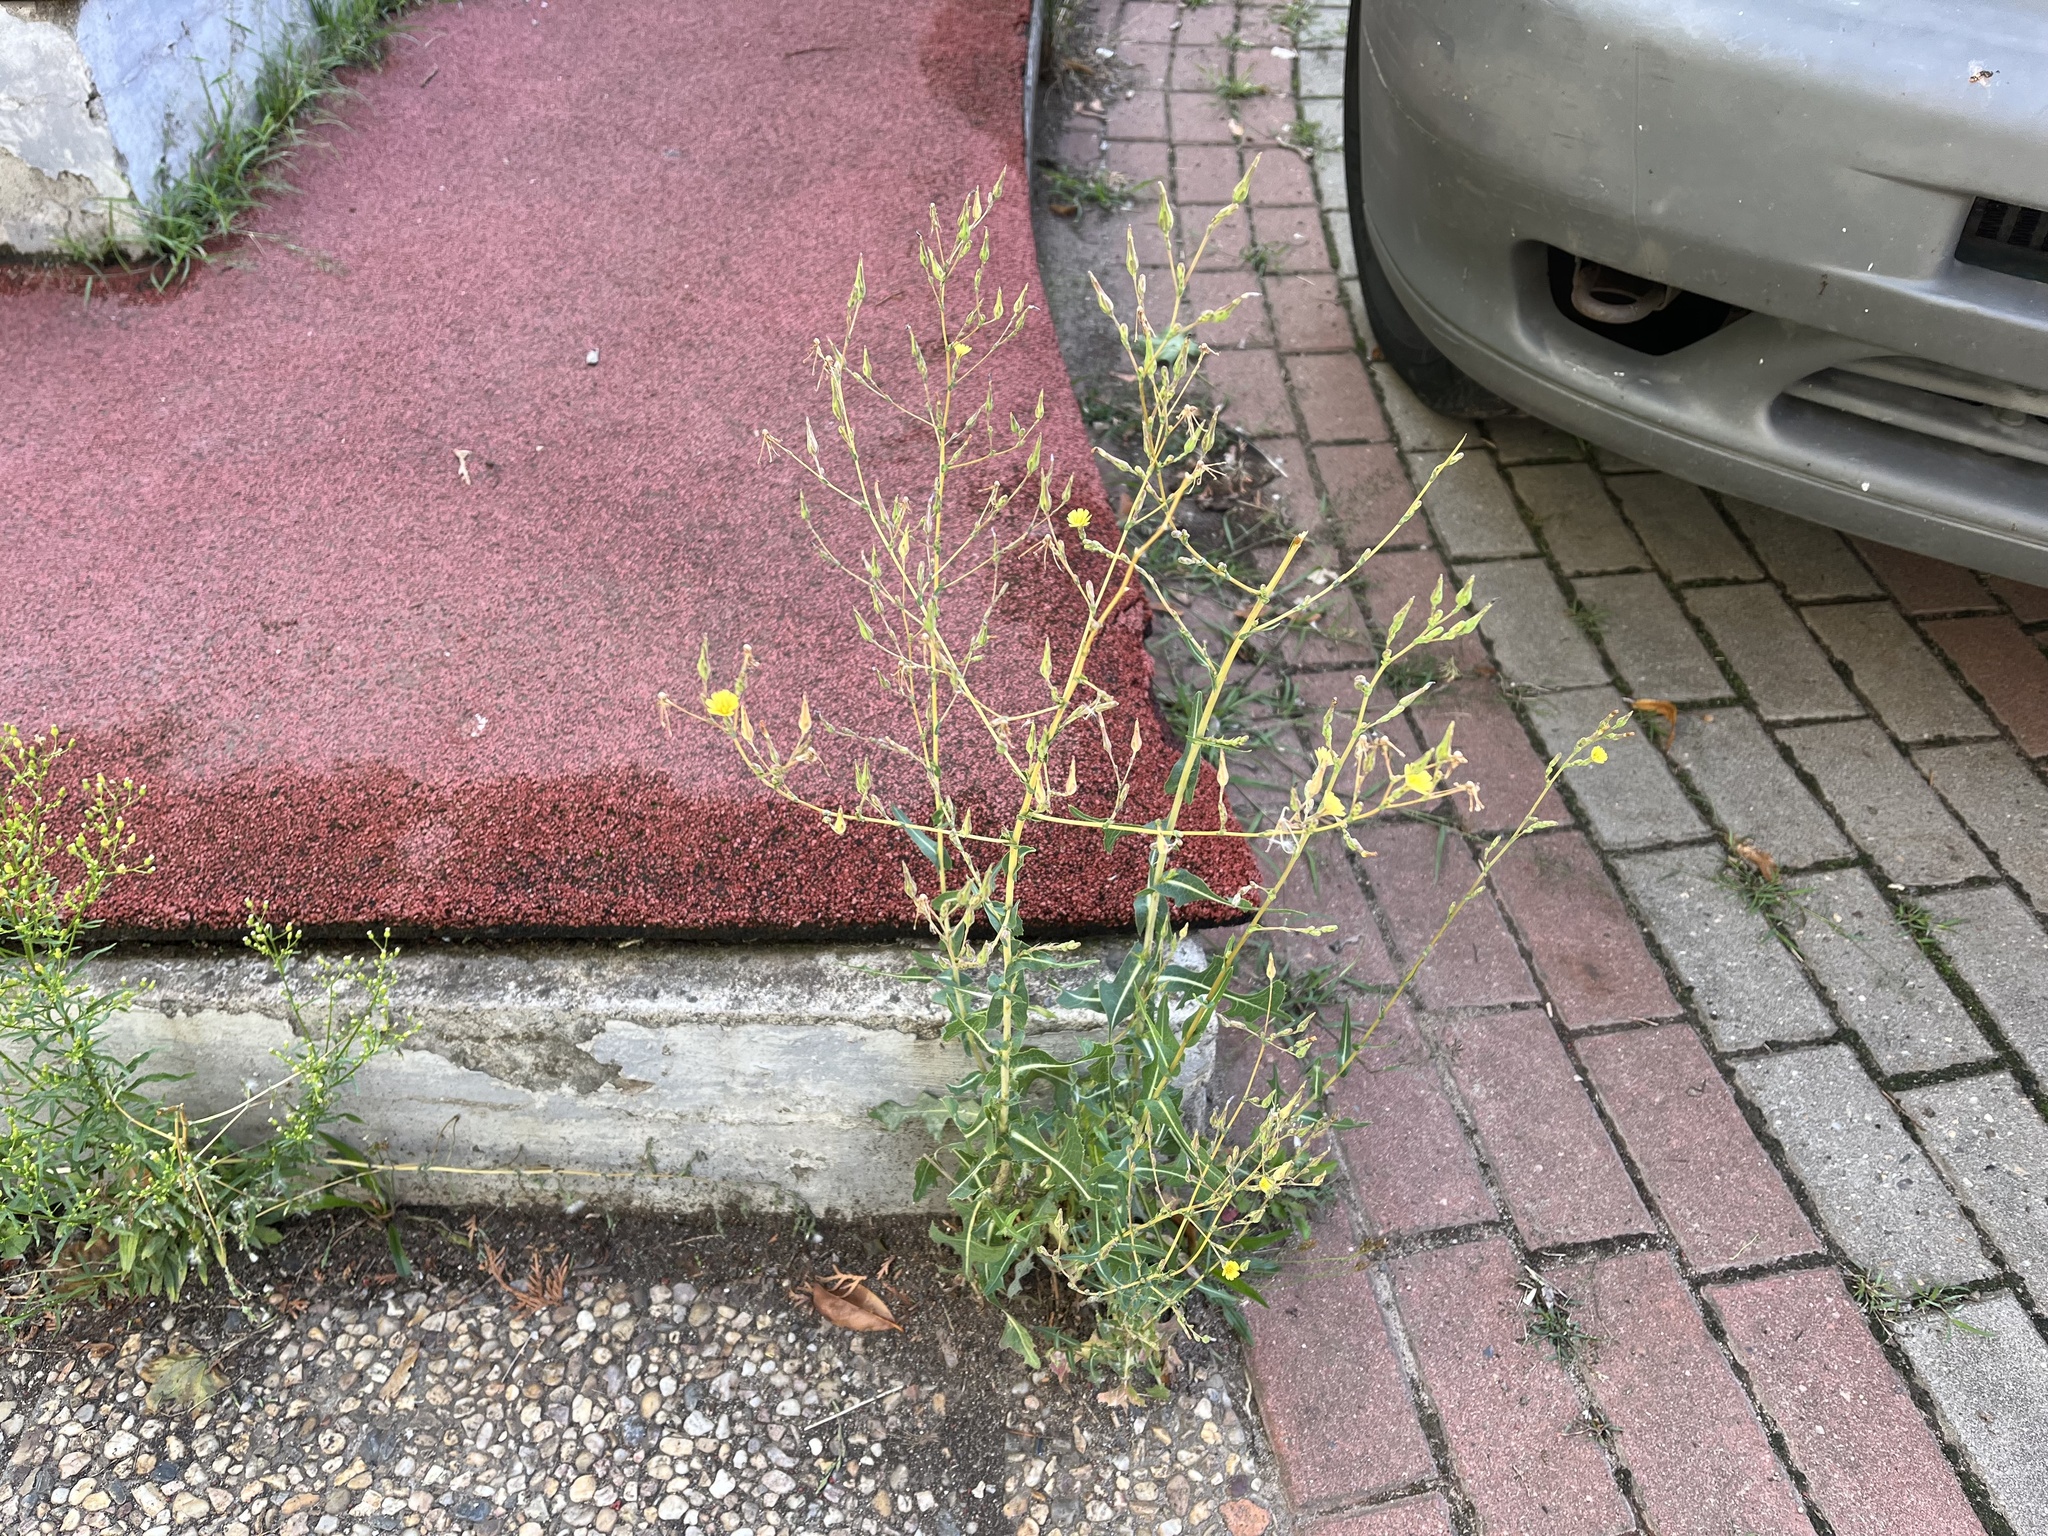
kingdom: Plantae
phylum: Tracheophyta
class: Magnoliopsida
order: Asterales
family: Asteraceae
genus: Lactuca
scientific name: Lactuca serriola
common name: Prickly lettuce
